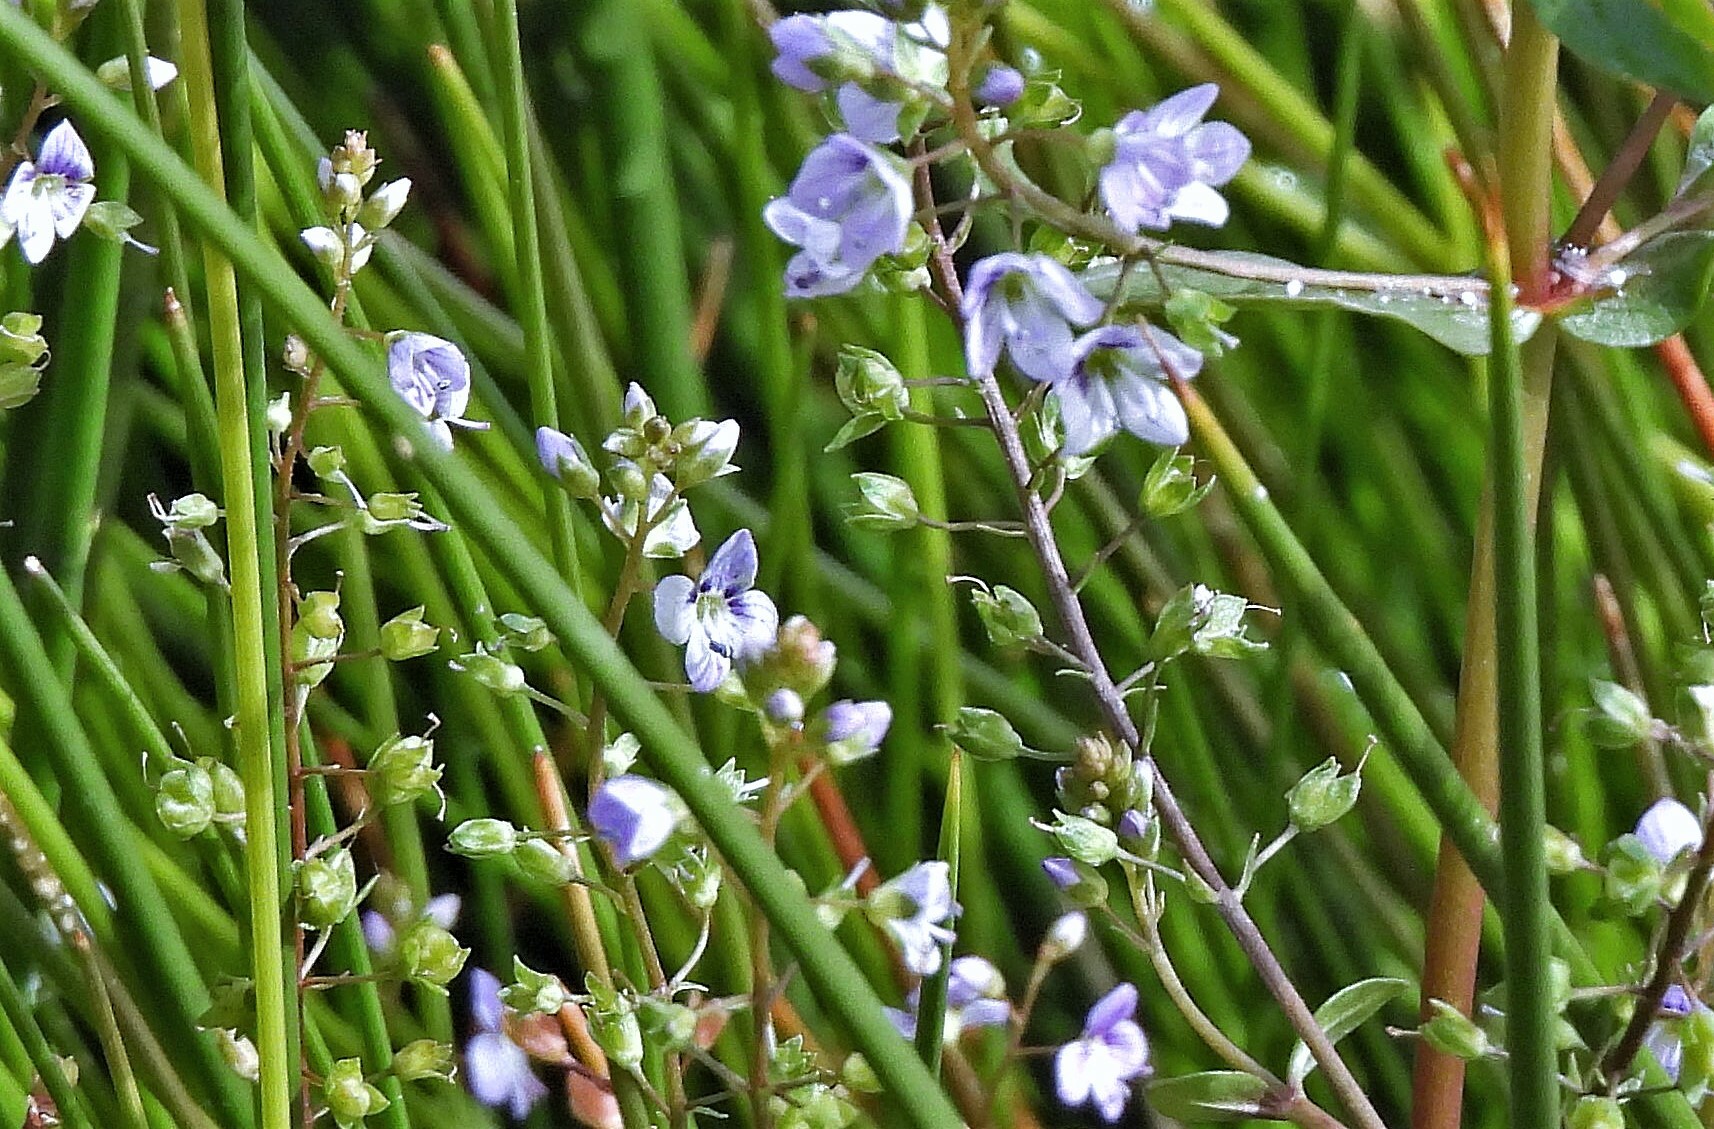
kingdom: Plantae
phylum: Tracheophyta
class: Magnoliopsida
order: Lamiales
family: Plantaginaceae
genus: Veronica
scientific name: Veronica anagallis-aquatica
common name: Water speedwell
